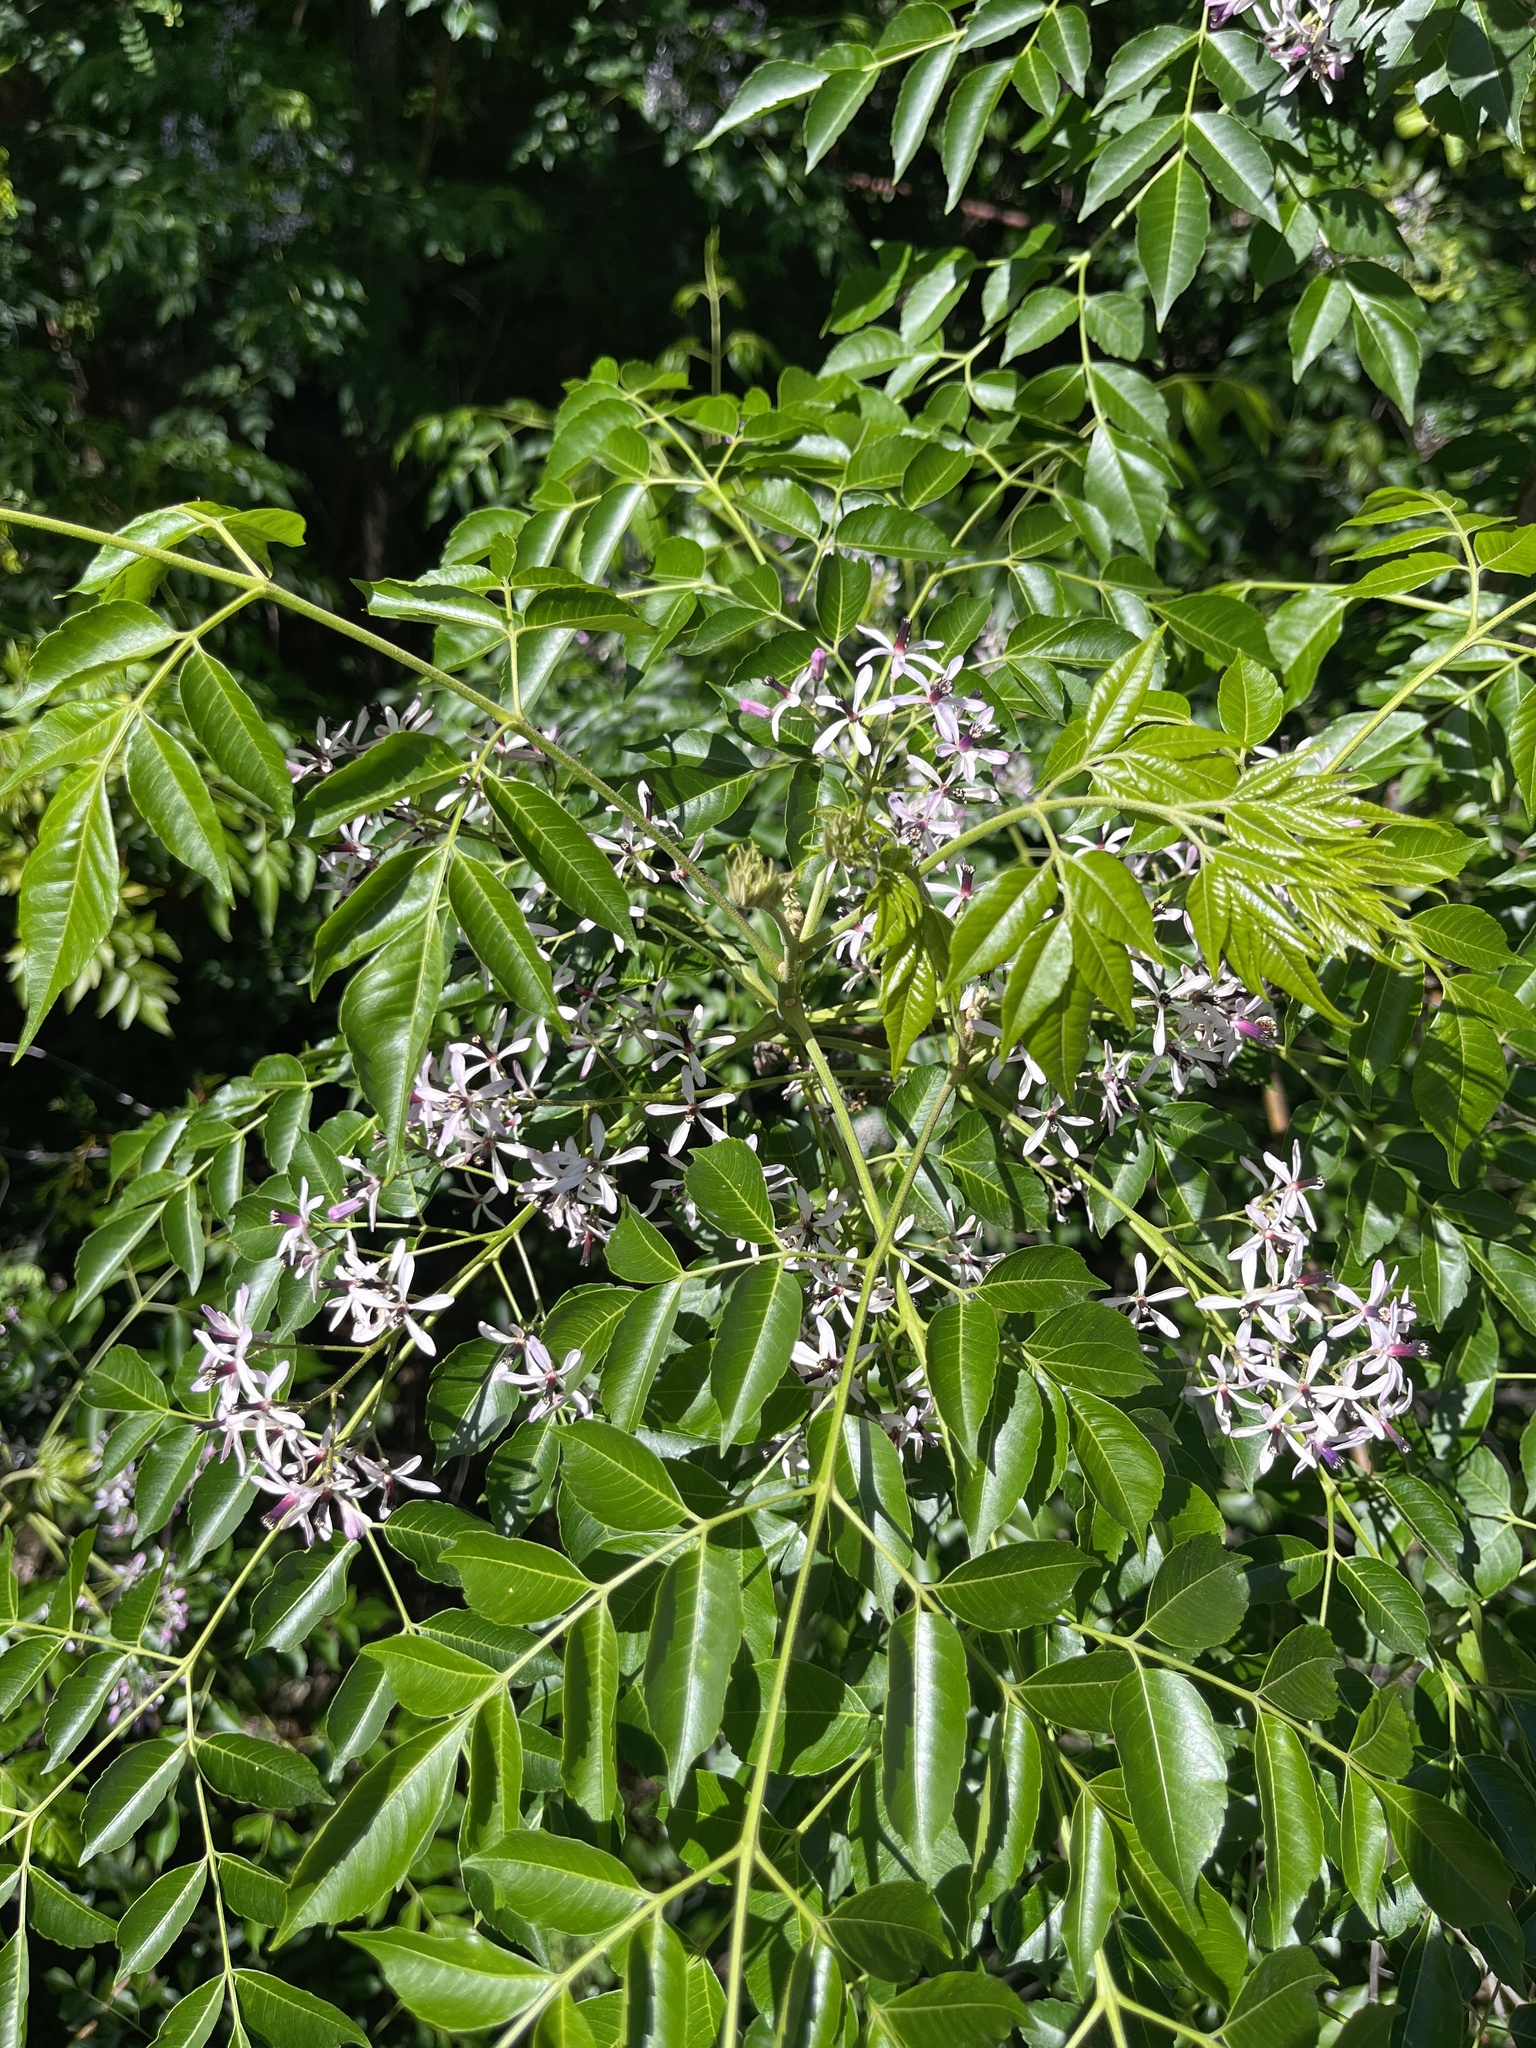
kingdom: Plantae
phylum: Tracheophyta
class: Magnoliopsida
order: Sapindales
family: Meliaceae
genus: Melia
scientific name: Melia azedarach
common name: Chinaberrytree
